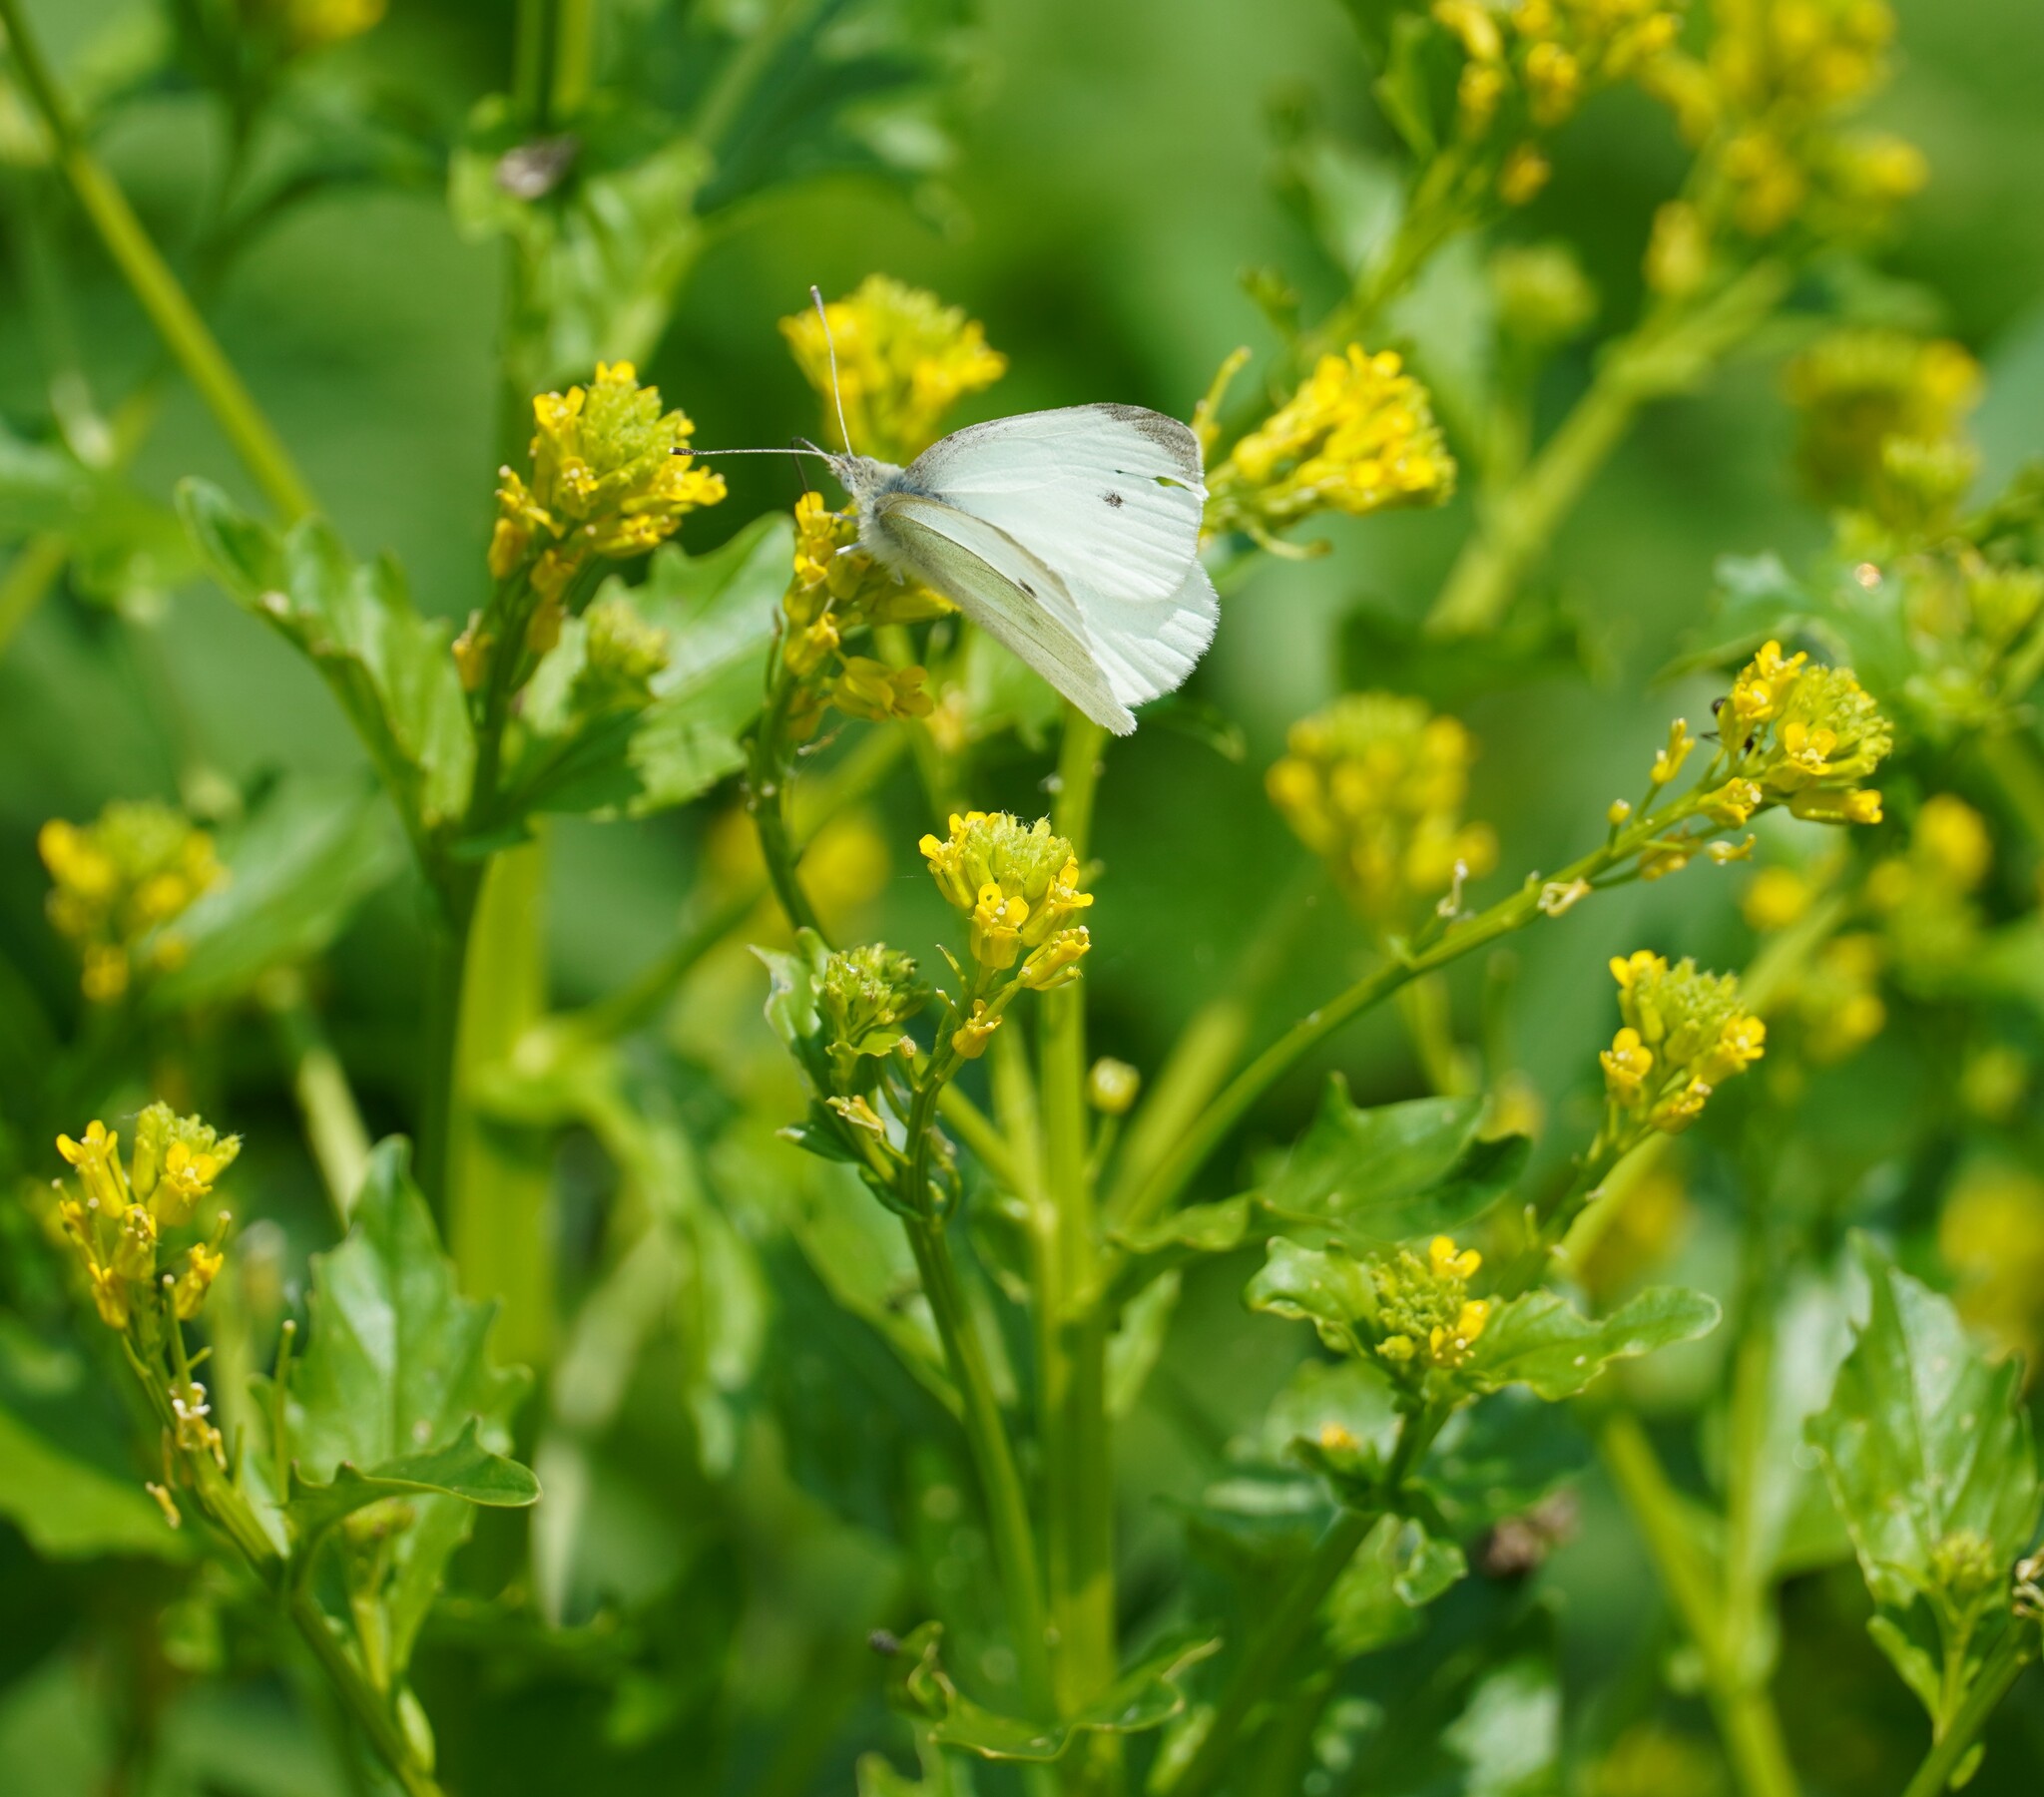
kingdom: Animalia
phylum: Arthropoda
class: Insecta
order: Lepidoptera
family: Pieridae
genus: Pieris
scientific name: Pieris rapae
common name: Small white
